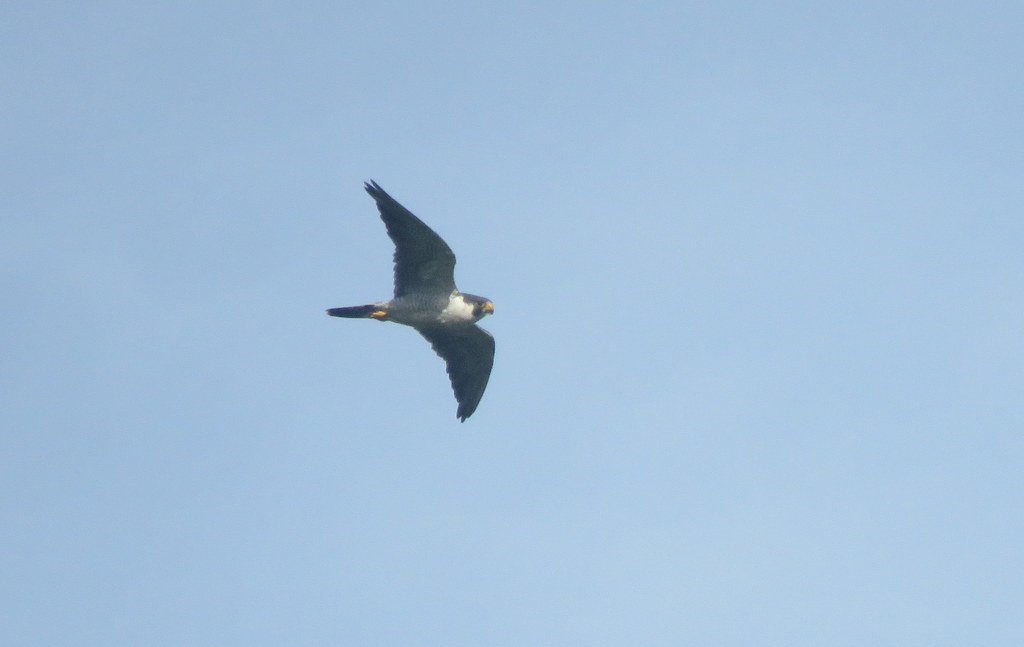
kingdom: Animalia
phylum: Chordata
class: Aves
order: Falconiformes
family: Falconidae
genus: Falco
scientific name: Falco peregrinus
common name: Peregrine falcon
